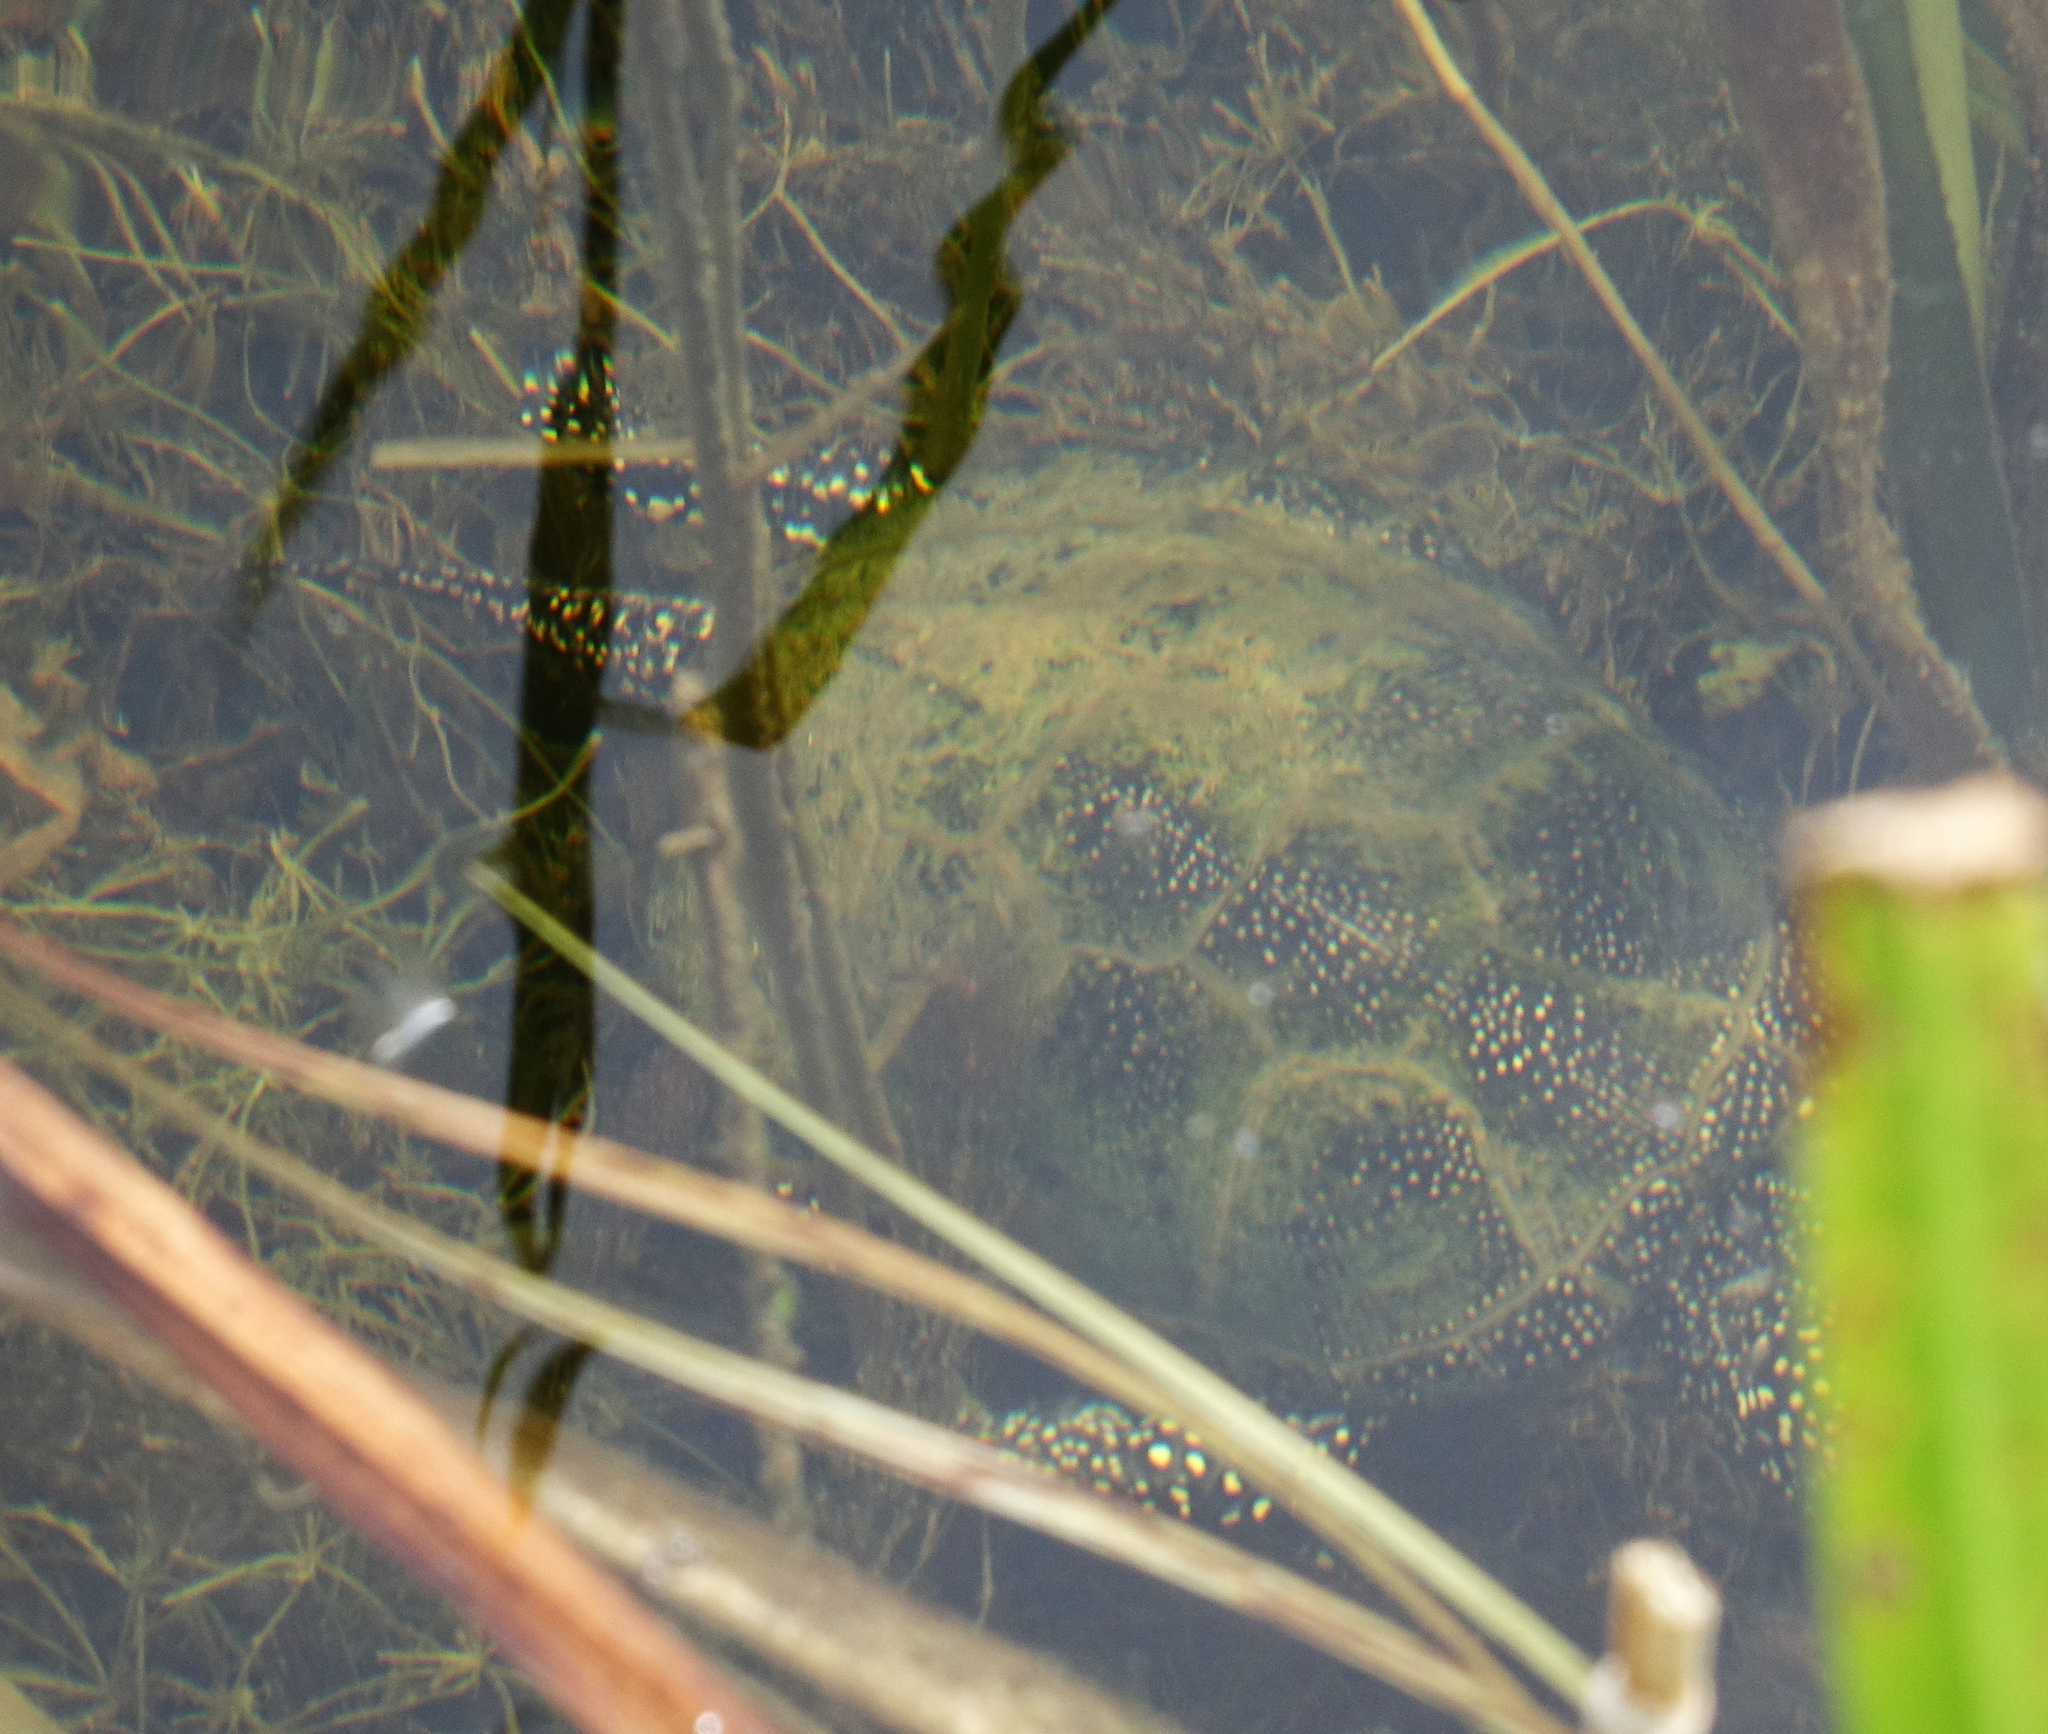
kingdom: Animalia
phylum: Chordata
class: Testudines
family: Emydidae
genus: Emys
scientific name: Emys orbicularis
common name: European pond turtle
